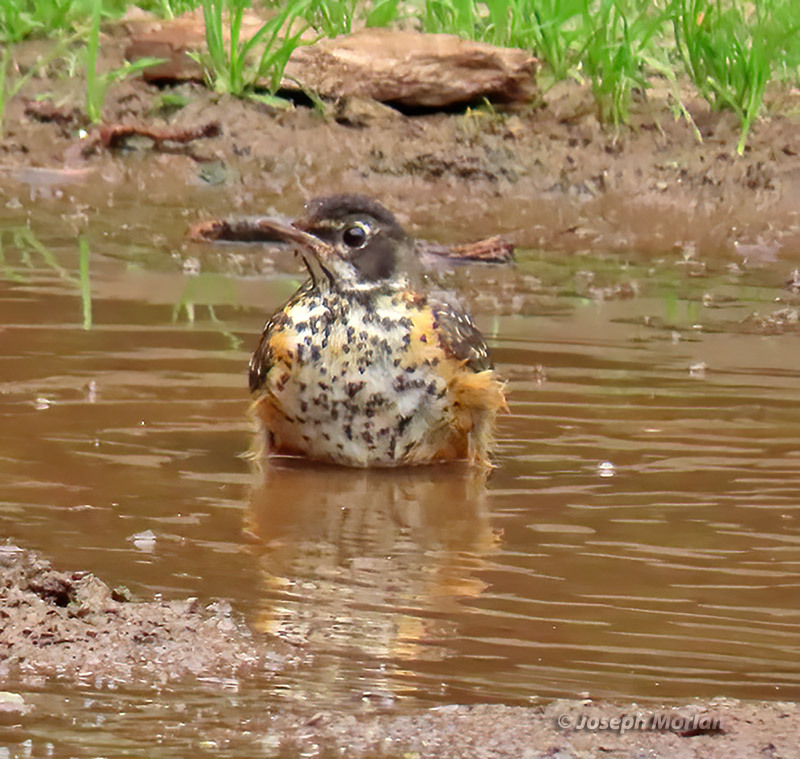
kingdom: Animalia
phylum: Chordata
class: Aves
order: Passeriformes
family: Turdidae
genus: Turdus
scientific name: Turdus migratorius
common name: American robin
